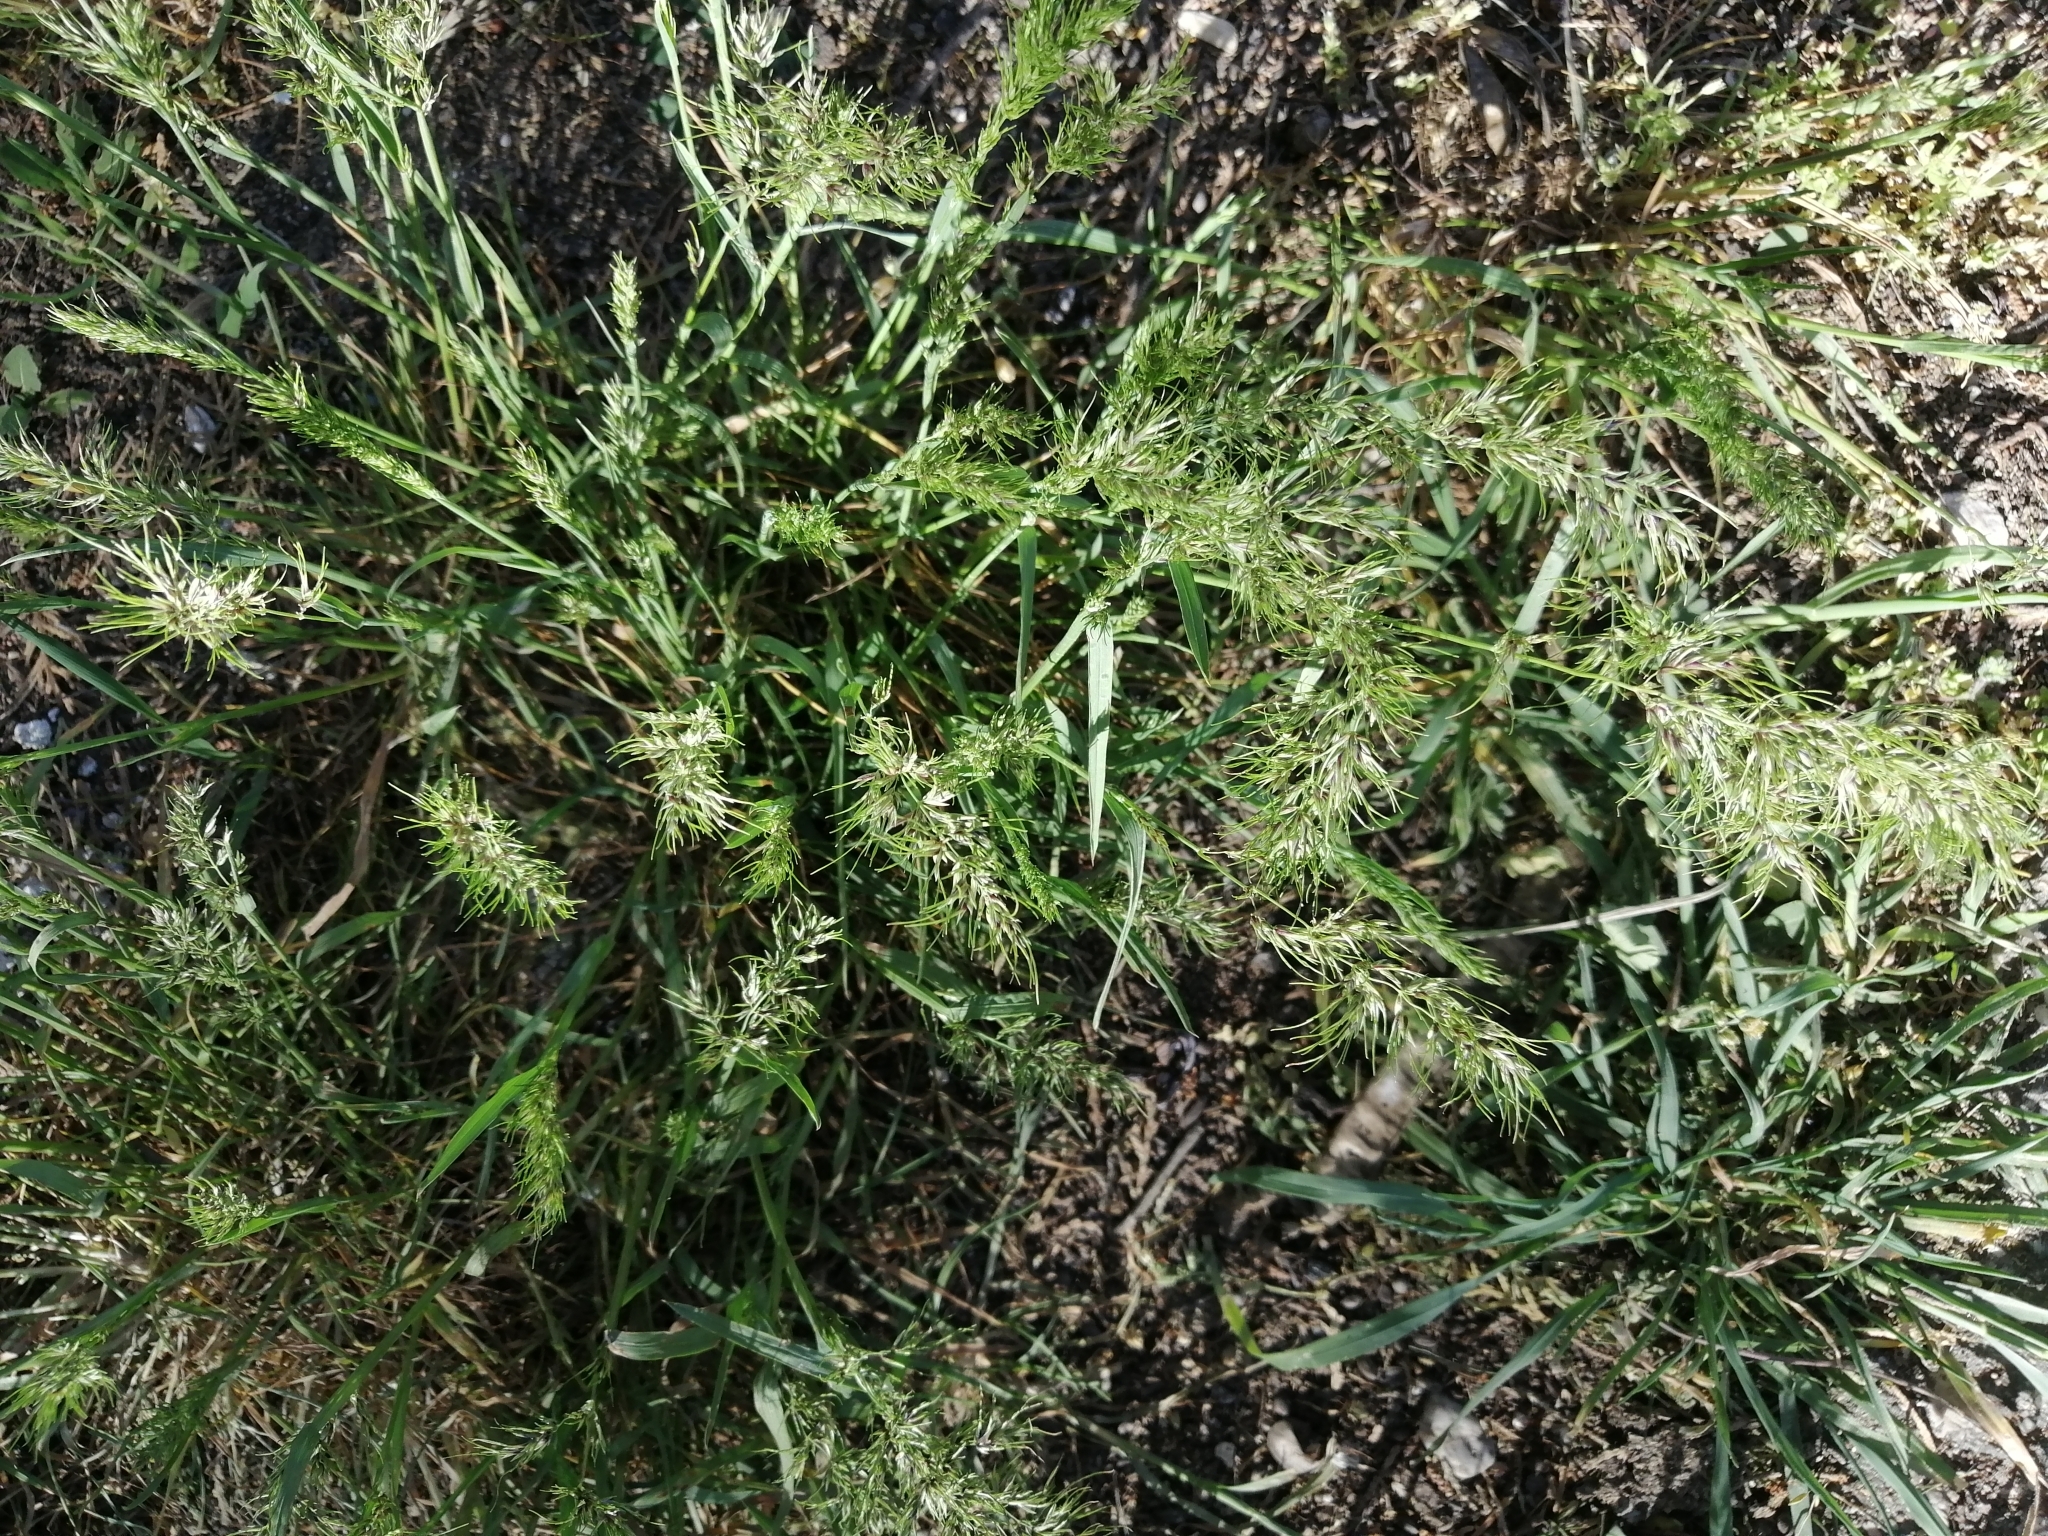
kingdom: Plantae
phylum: Tracheophyta
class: Liliopsida
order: Poales
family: Poaceae
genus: Poa
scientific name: Poa bulbosa
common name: Bulbous bluegrass
